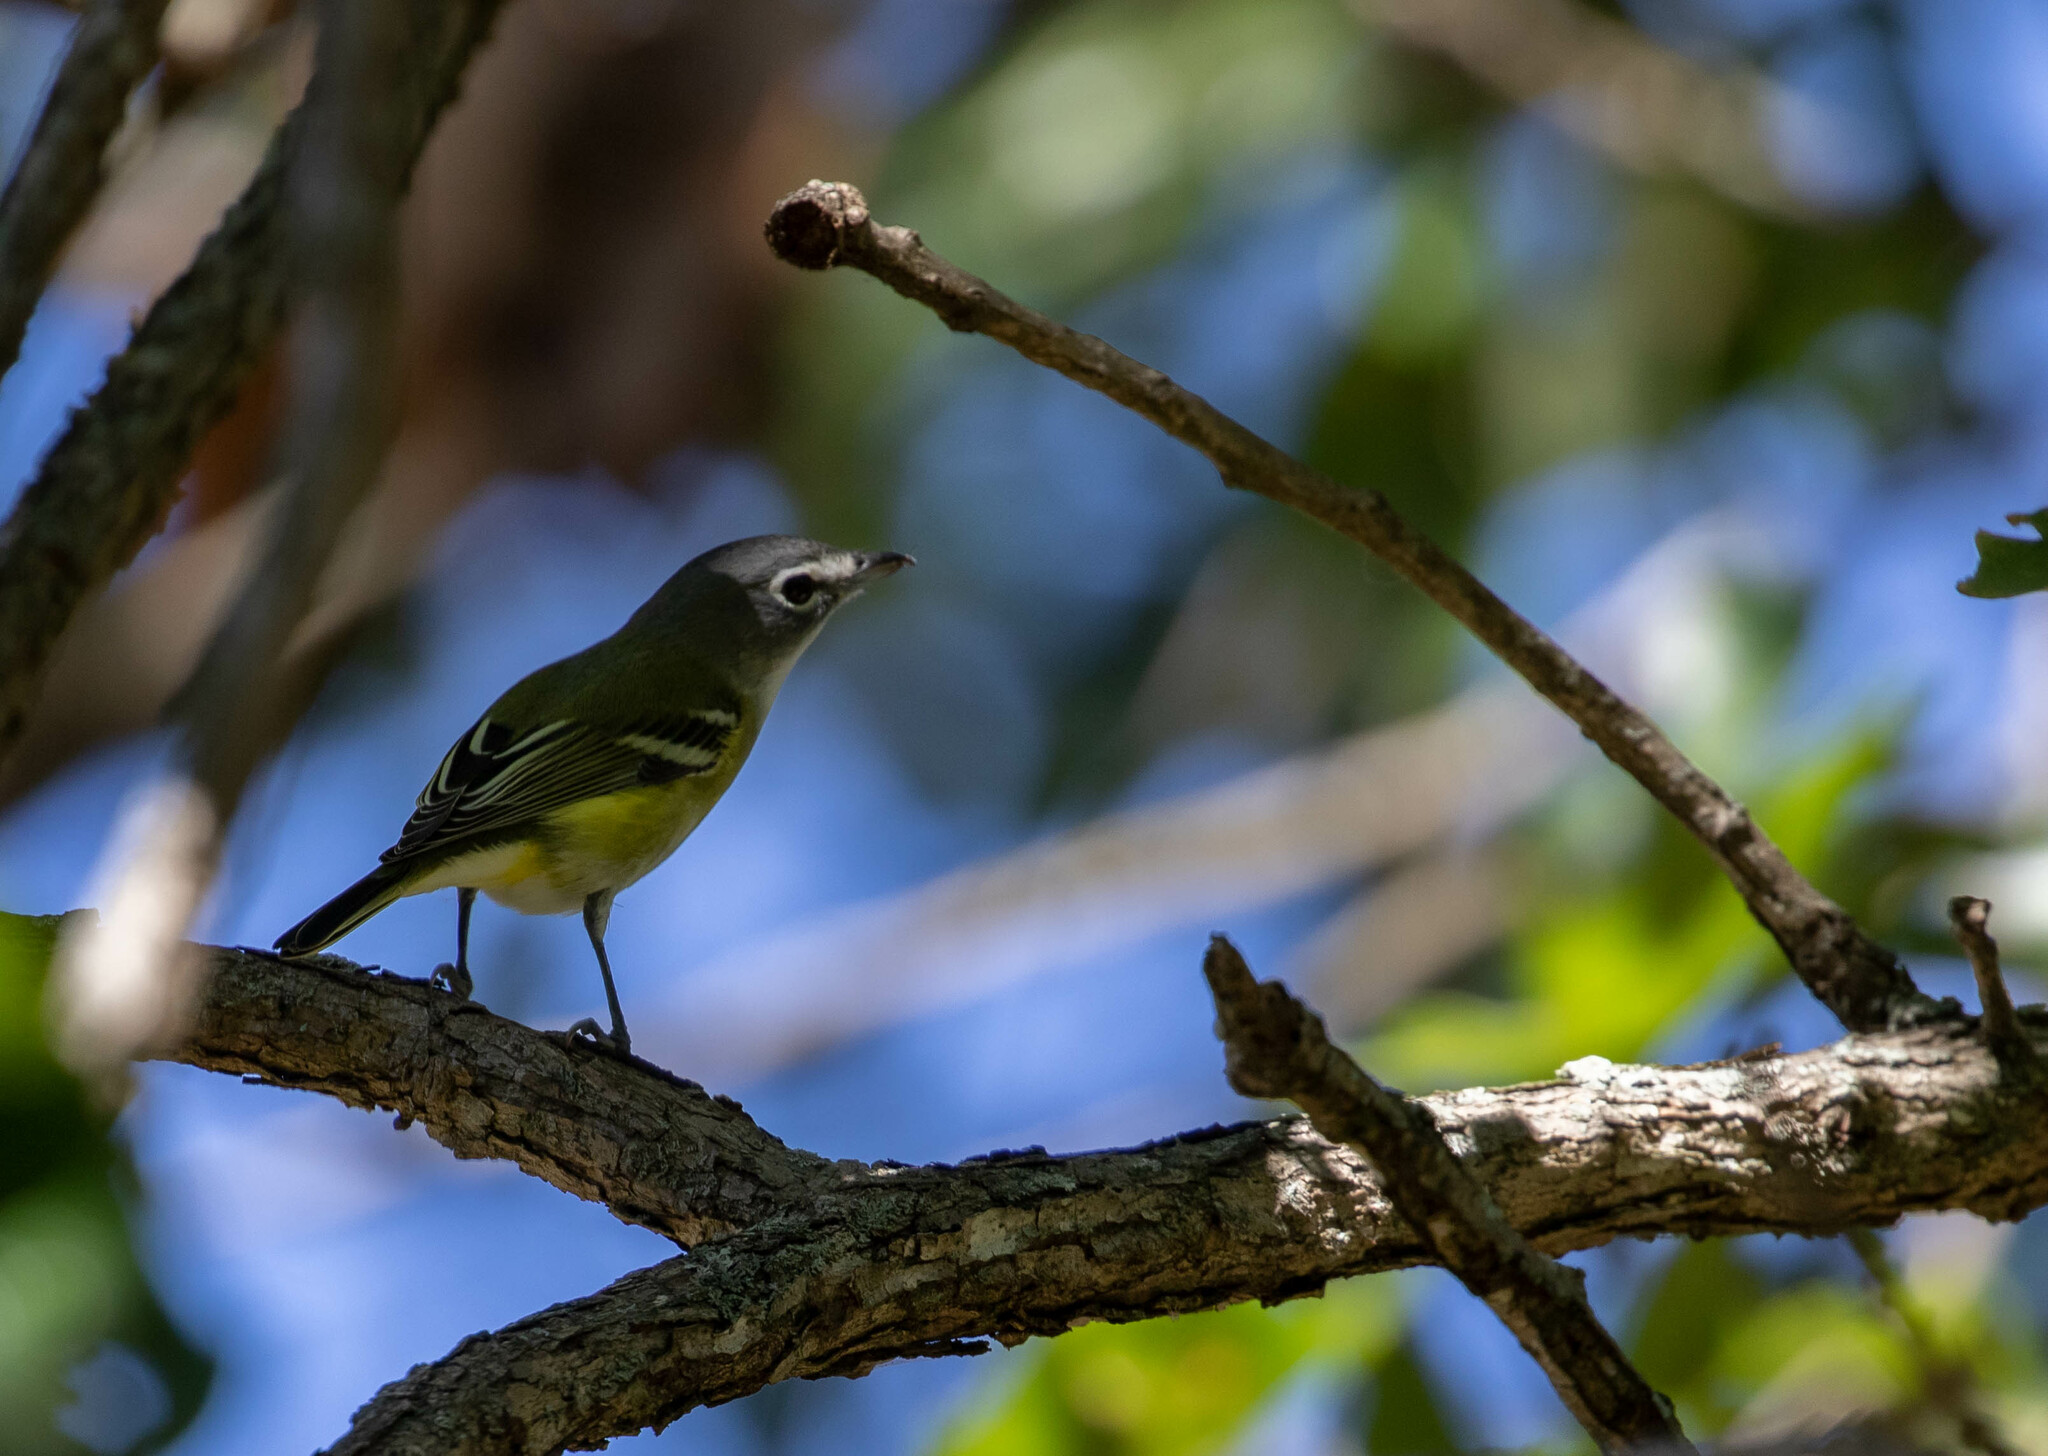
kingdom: Animalia
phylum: Chordata
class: Aves
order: Passeriformes
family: Vireonidae
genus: Vireo
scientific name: Vireo solitarius
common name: Blue-headed vireo
